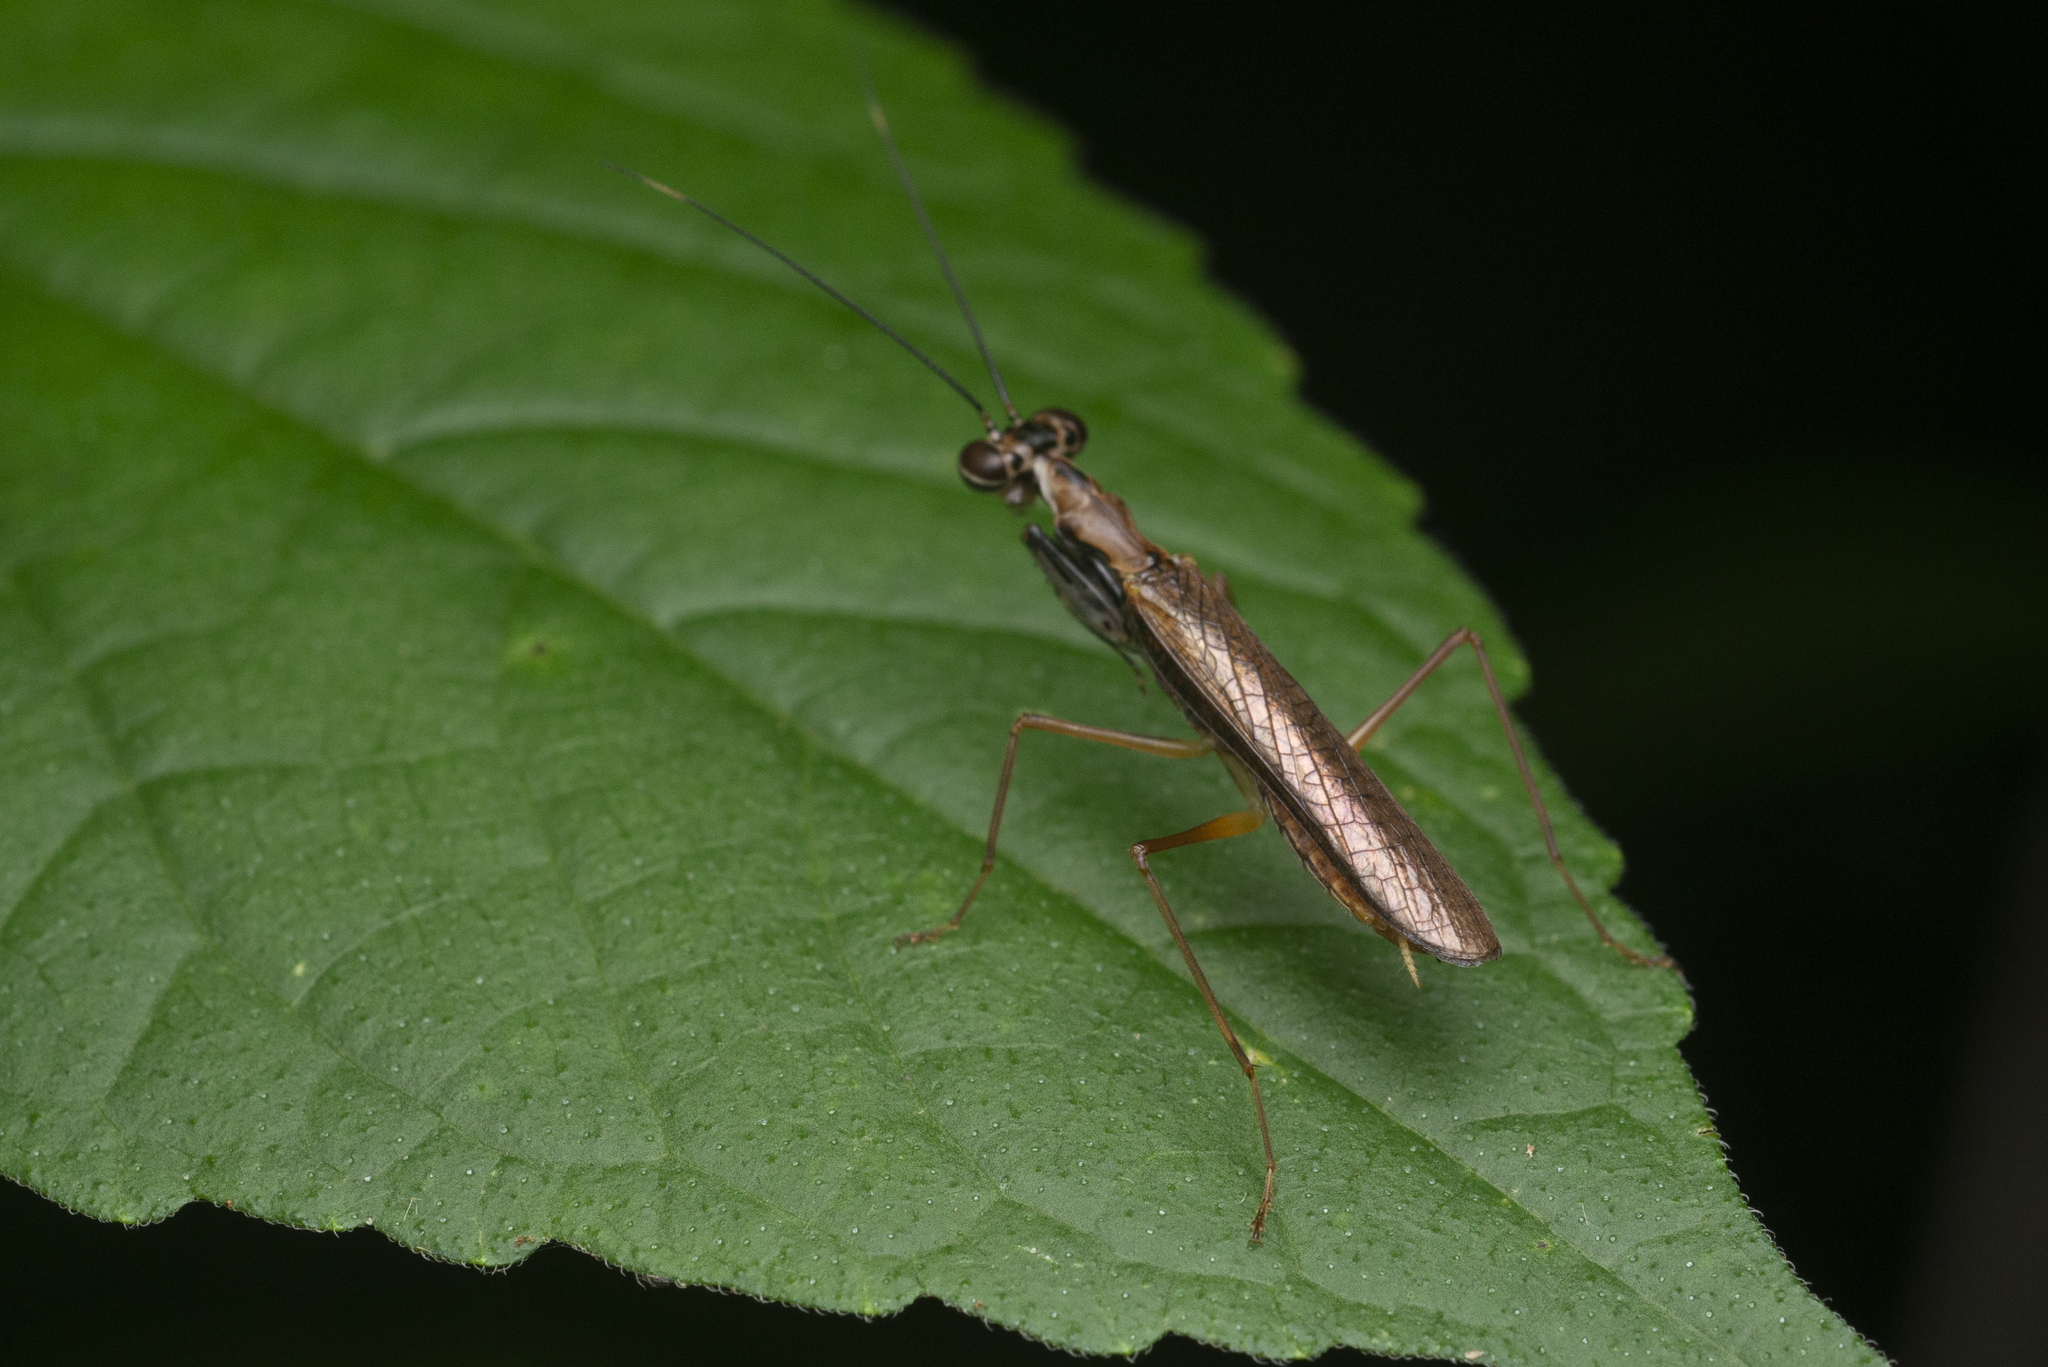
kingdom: Animalia
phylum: Arthropoda
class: Insecta
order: Mantodea
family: Gonypetidae
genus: Spilomantis
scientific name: Spilomantis occipitalis
